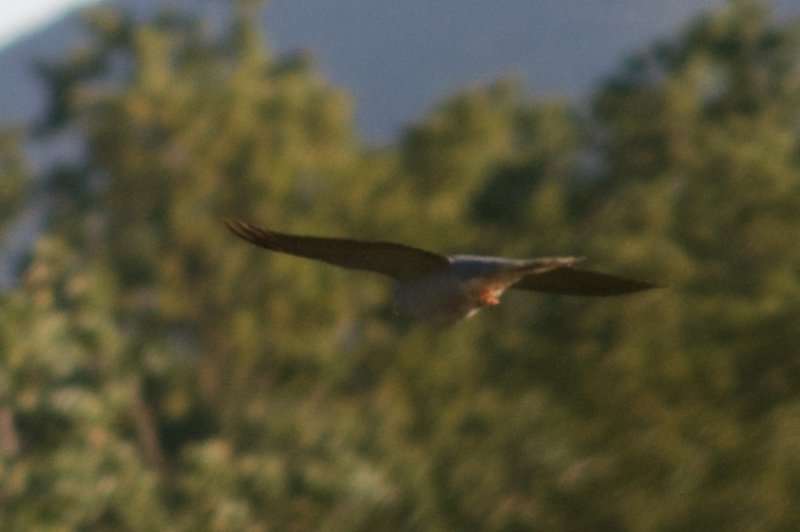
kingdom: Animalia
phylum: Chordata
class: Aves
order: Columbiformes
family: Columbidae
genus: Patagioenas
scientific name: Patagioenas fasciata
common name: Band-tailed pigeon
